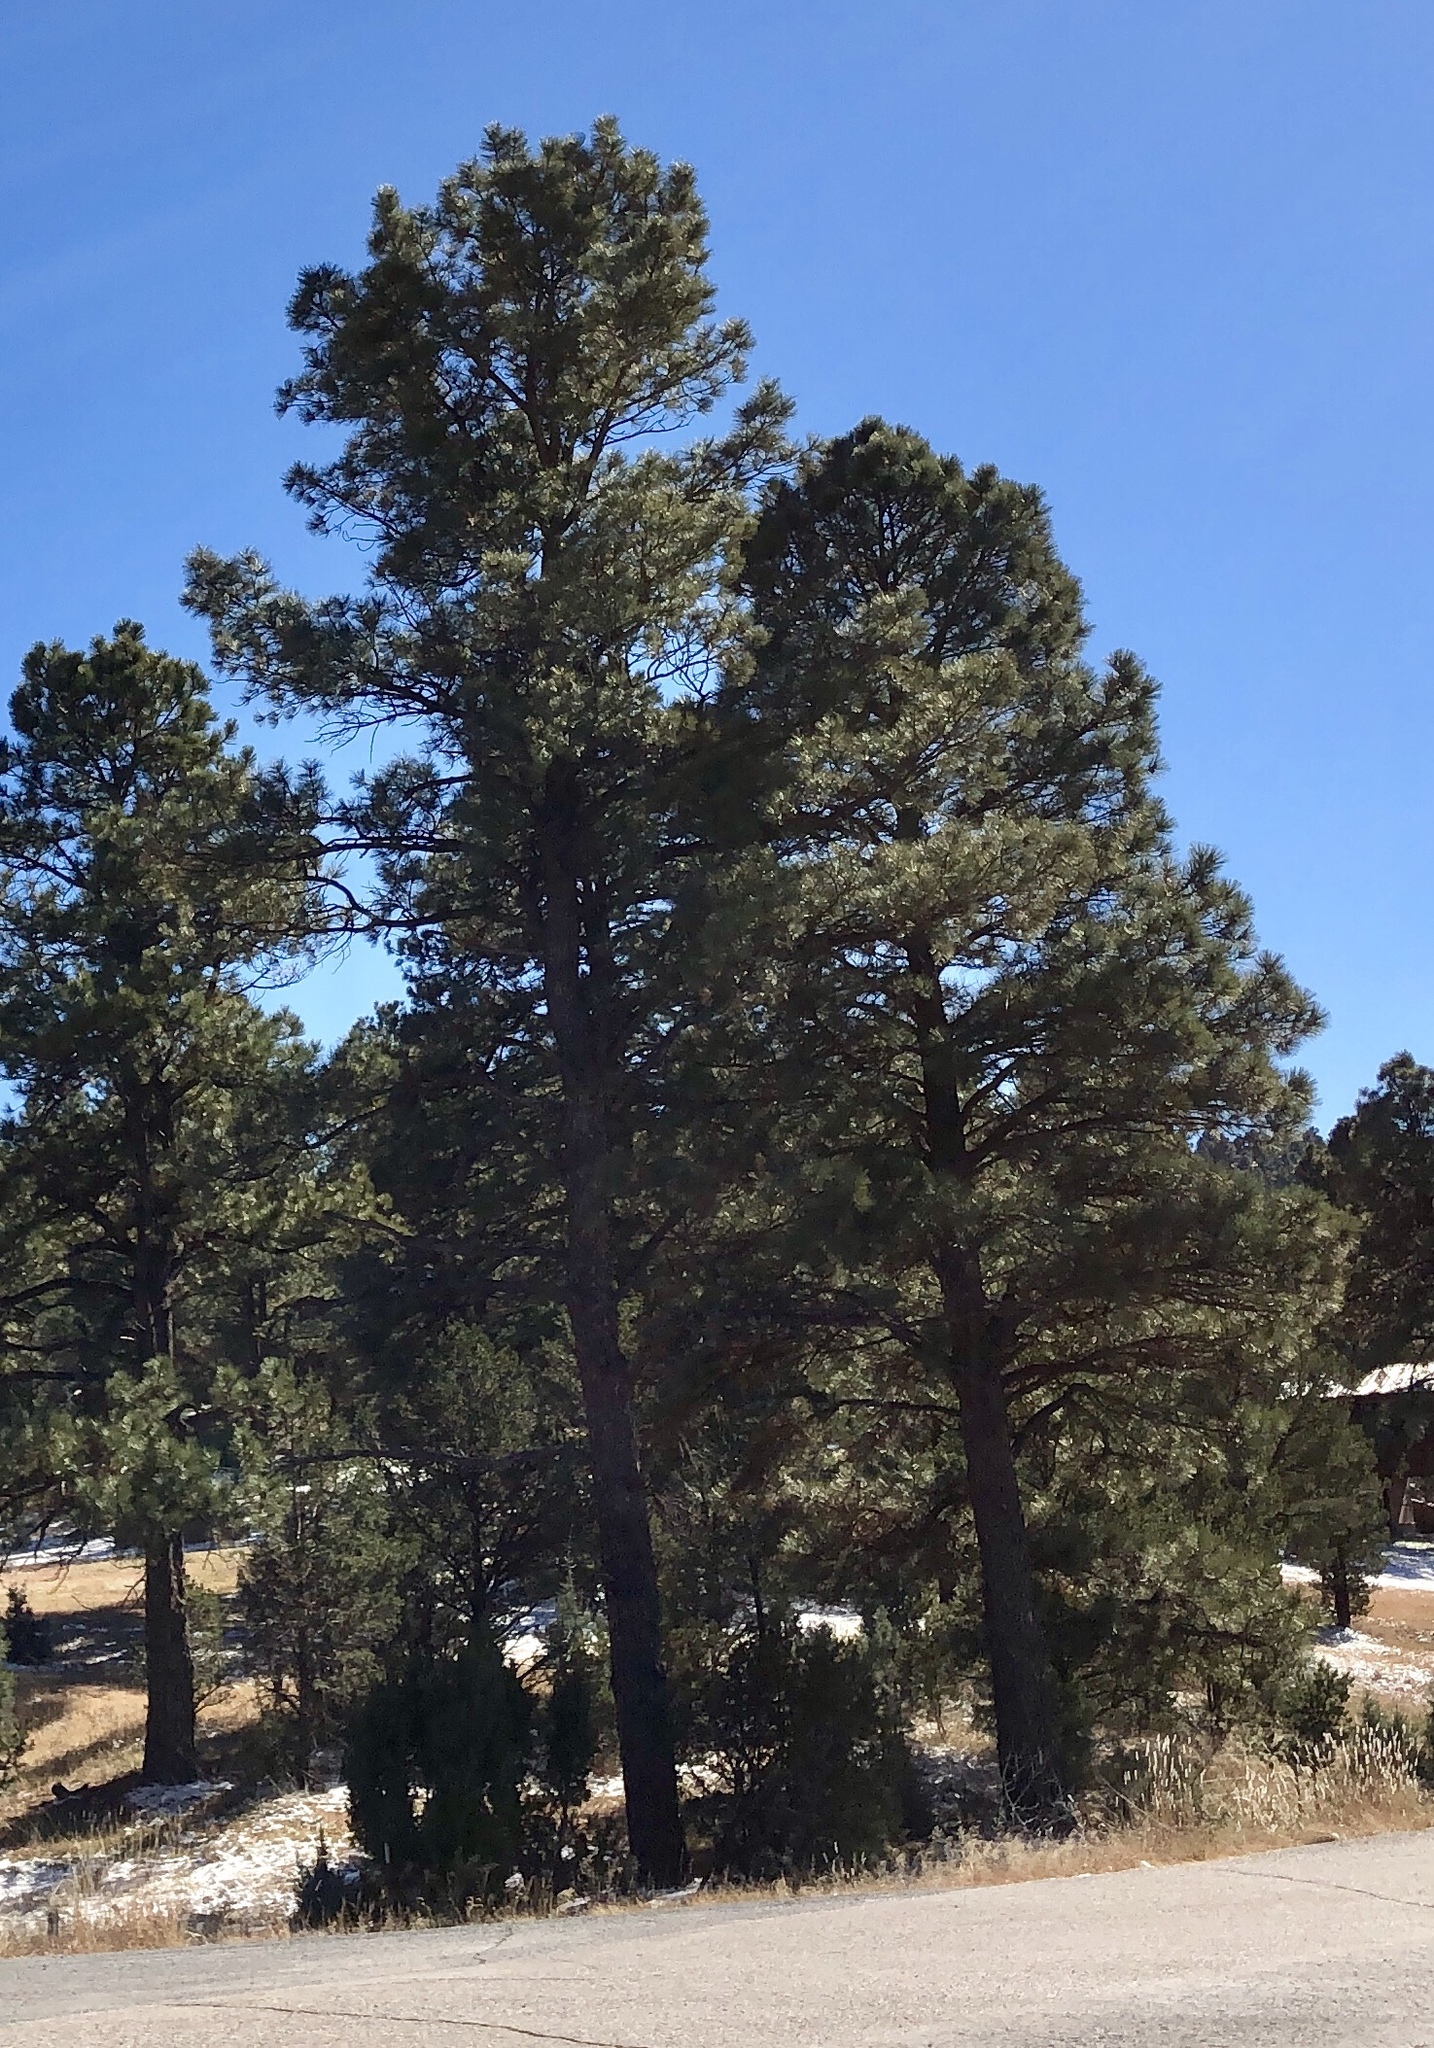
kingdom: Plantae
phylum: Tracheophyta
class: Pinopsida
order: Pinales
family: Pinaceae
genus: Pinus
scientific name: Pinus ponderosa
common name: Western yellow-pine
